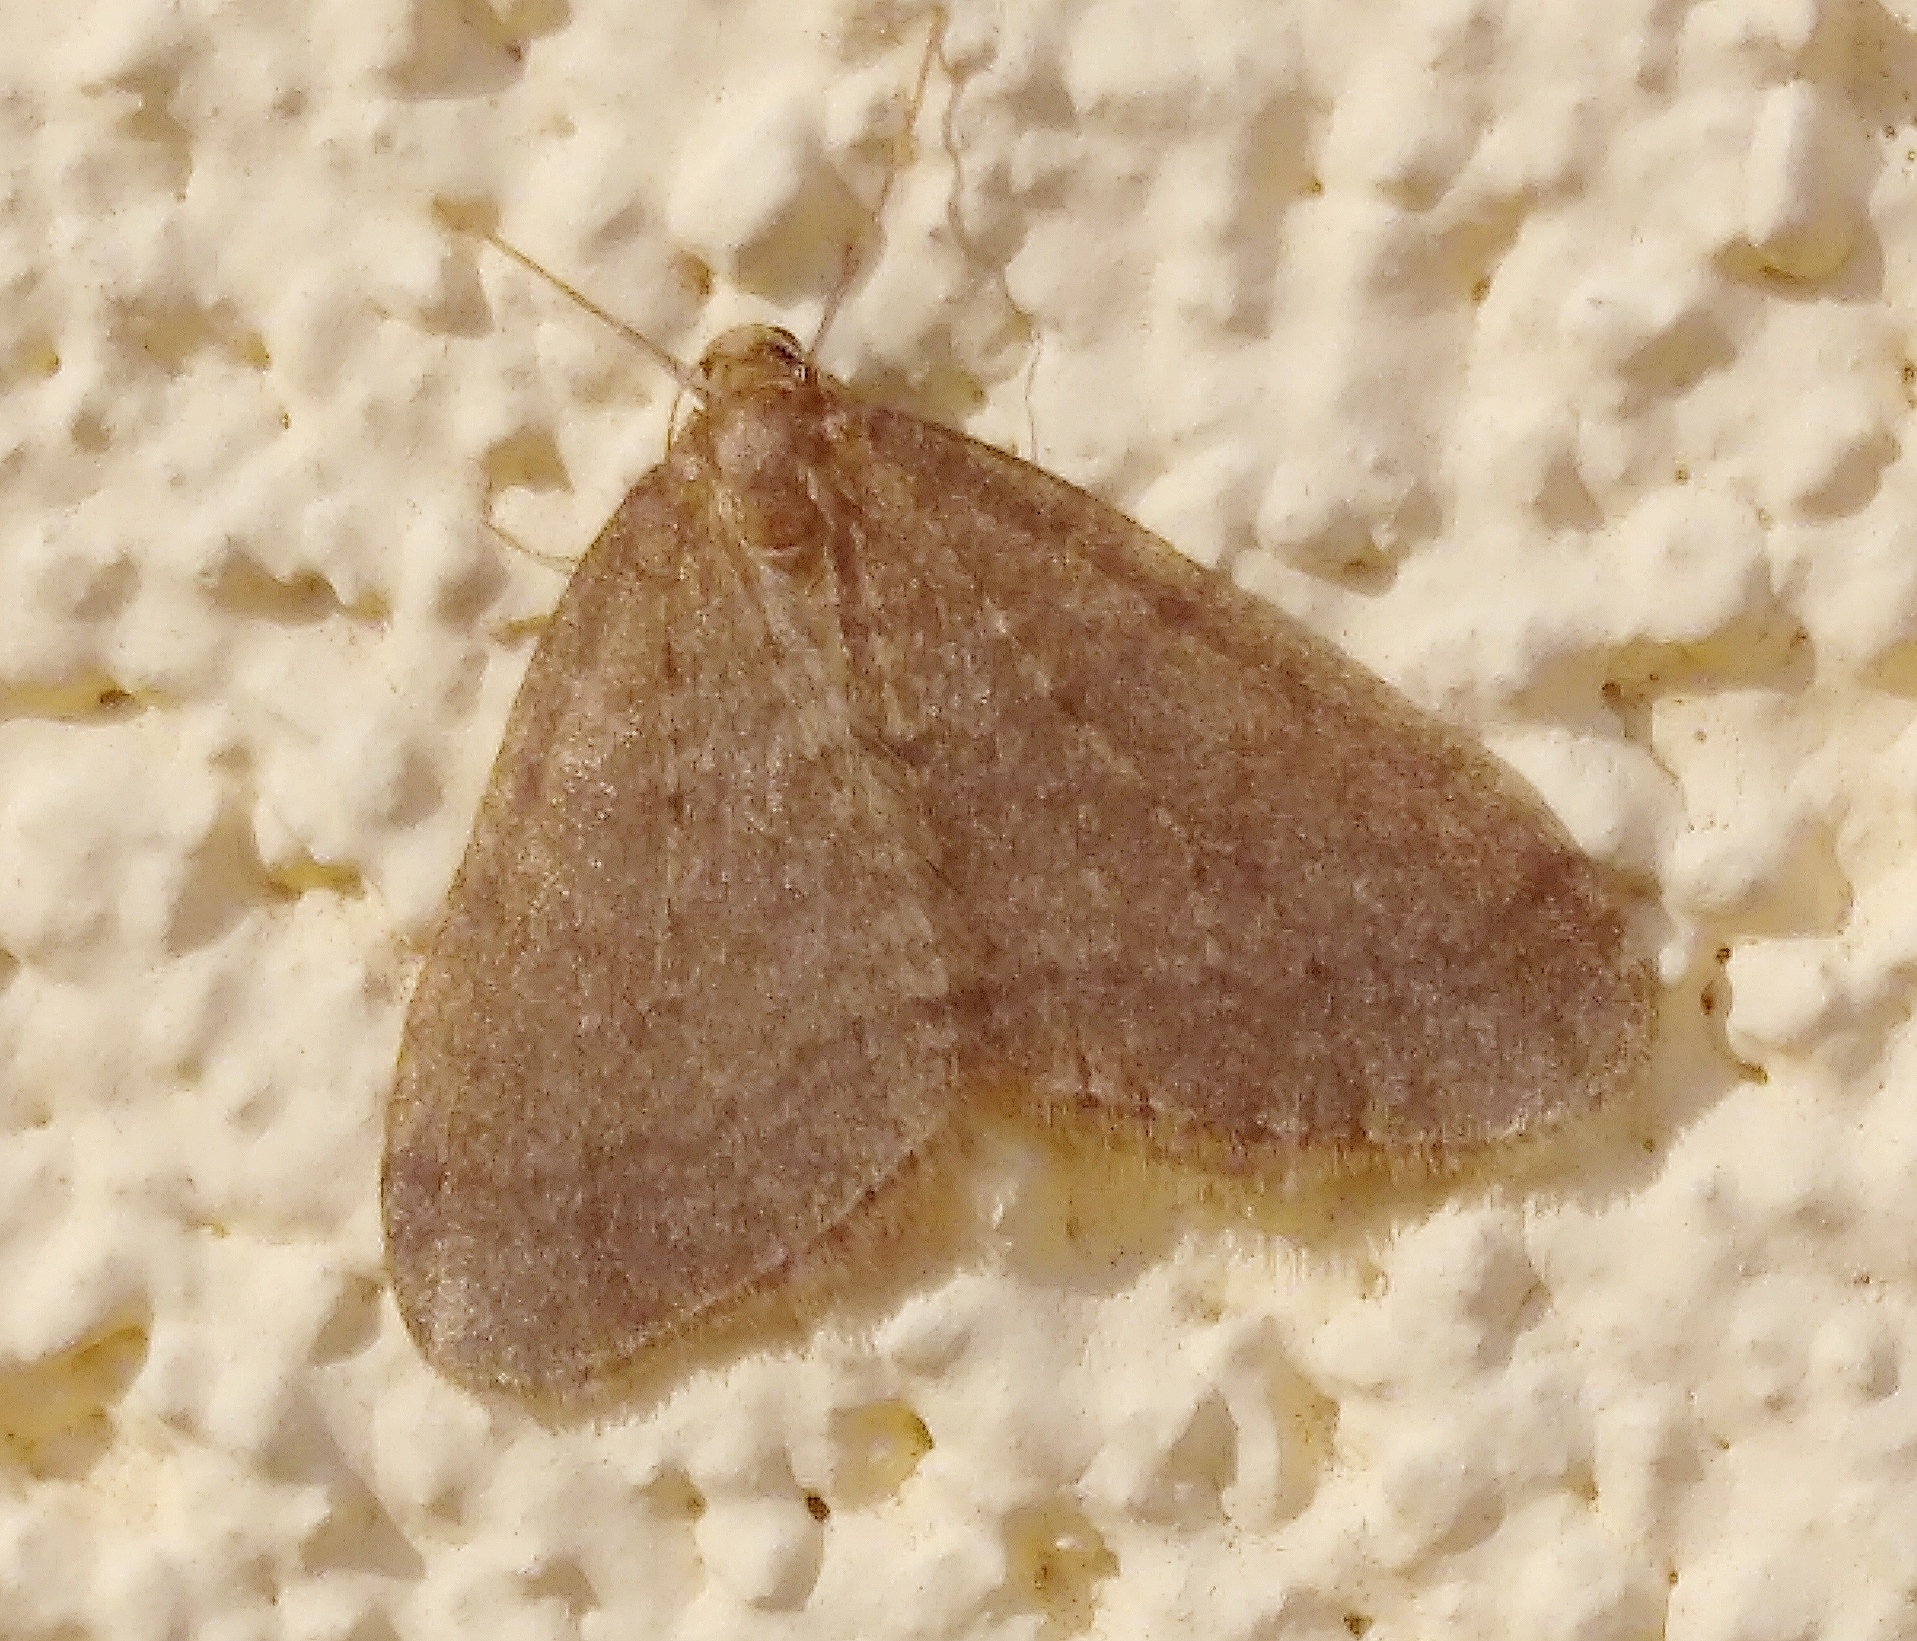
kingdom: Animalia
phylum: Arthropoda
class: Insecta
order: Lepidoptera
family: Geometridae
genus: Operophtera
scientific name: Operophtera brumata
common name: Winter moth
